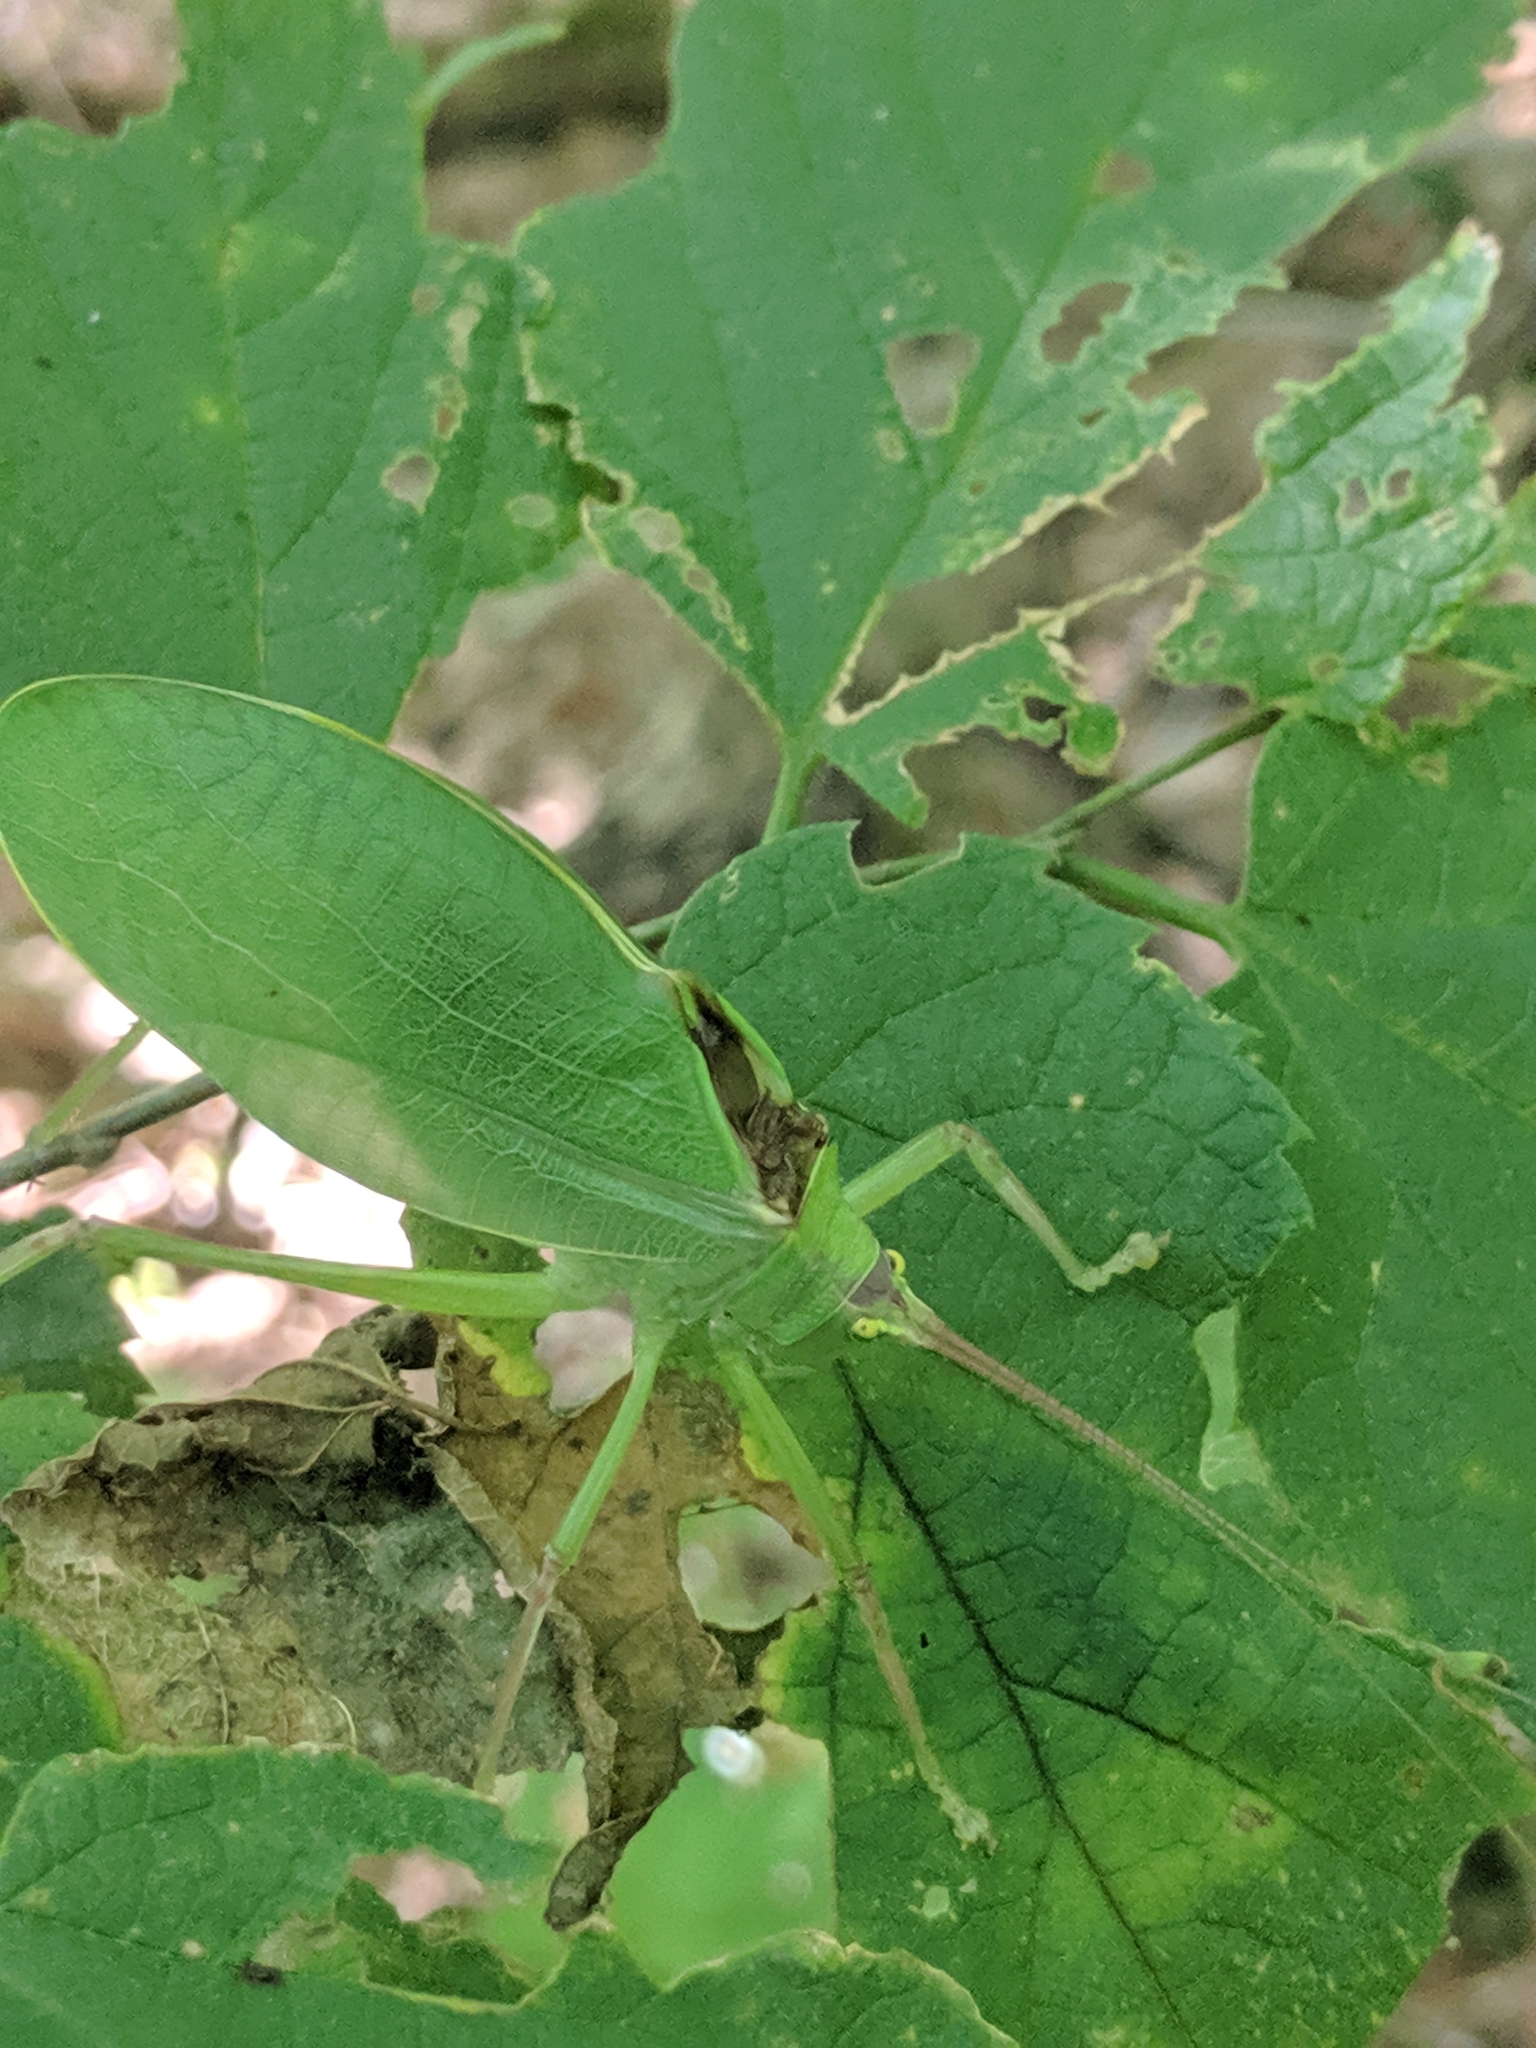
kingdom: Animalia
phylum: Arthropoda
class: Insecta
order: Orthoptera
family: Tettigoniidae
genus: Pterophylla
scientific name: Pterophylla camellifolia
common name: Common true katydid
